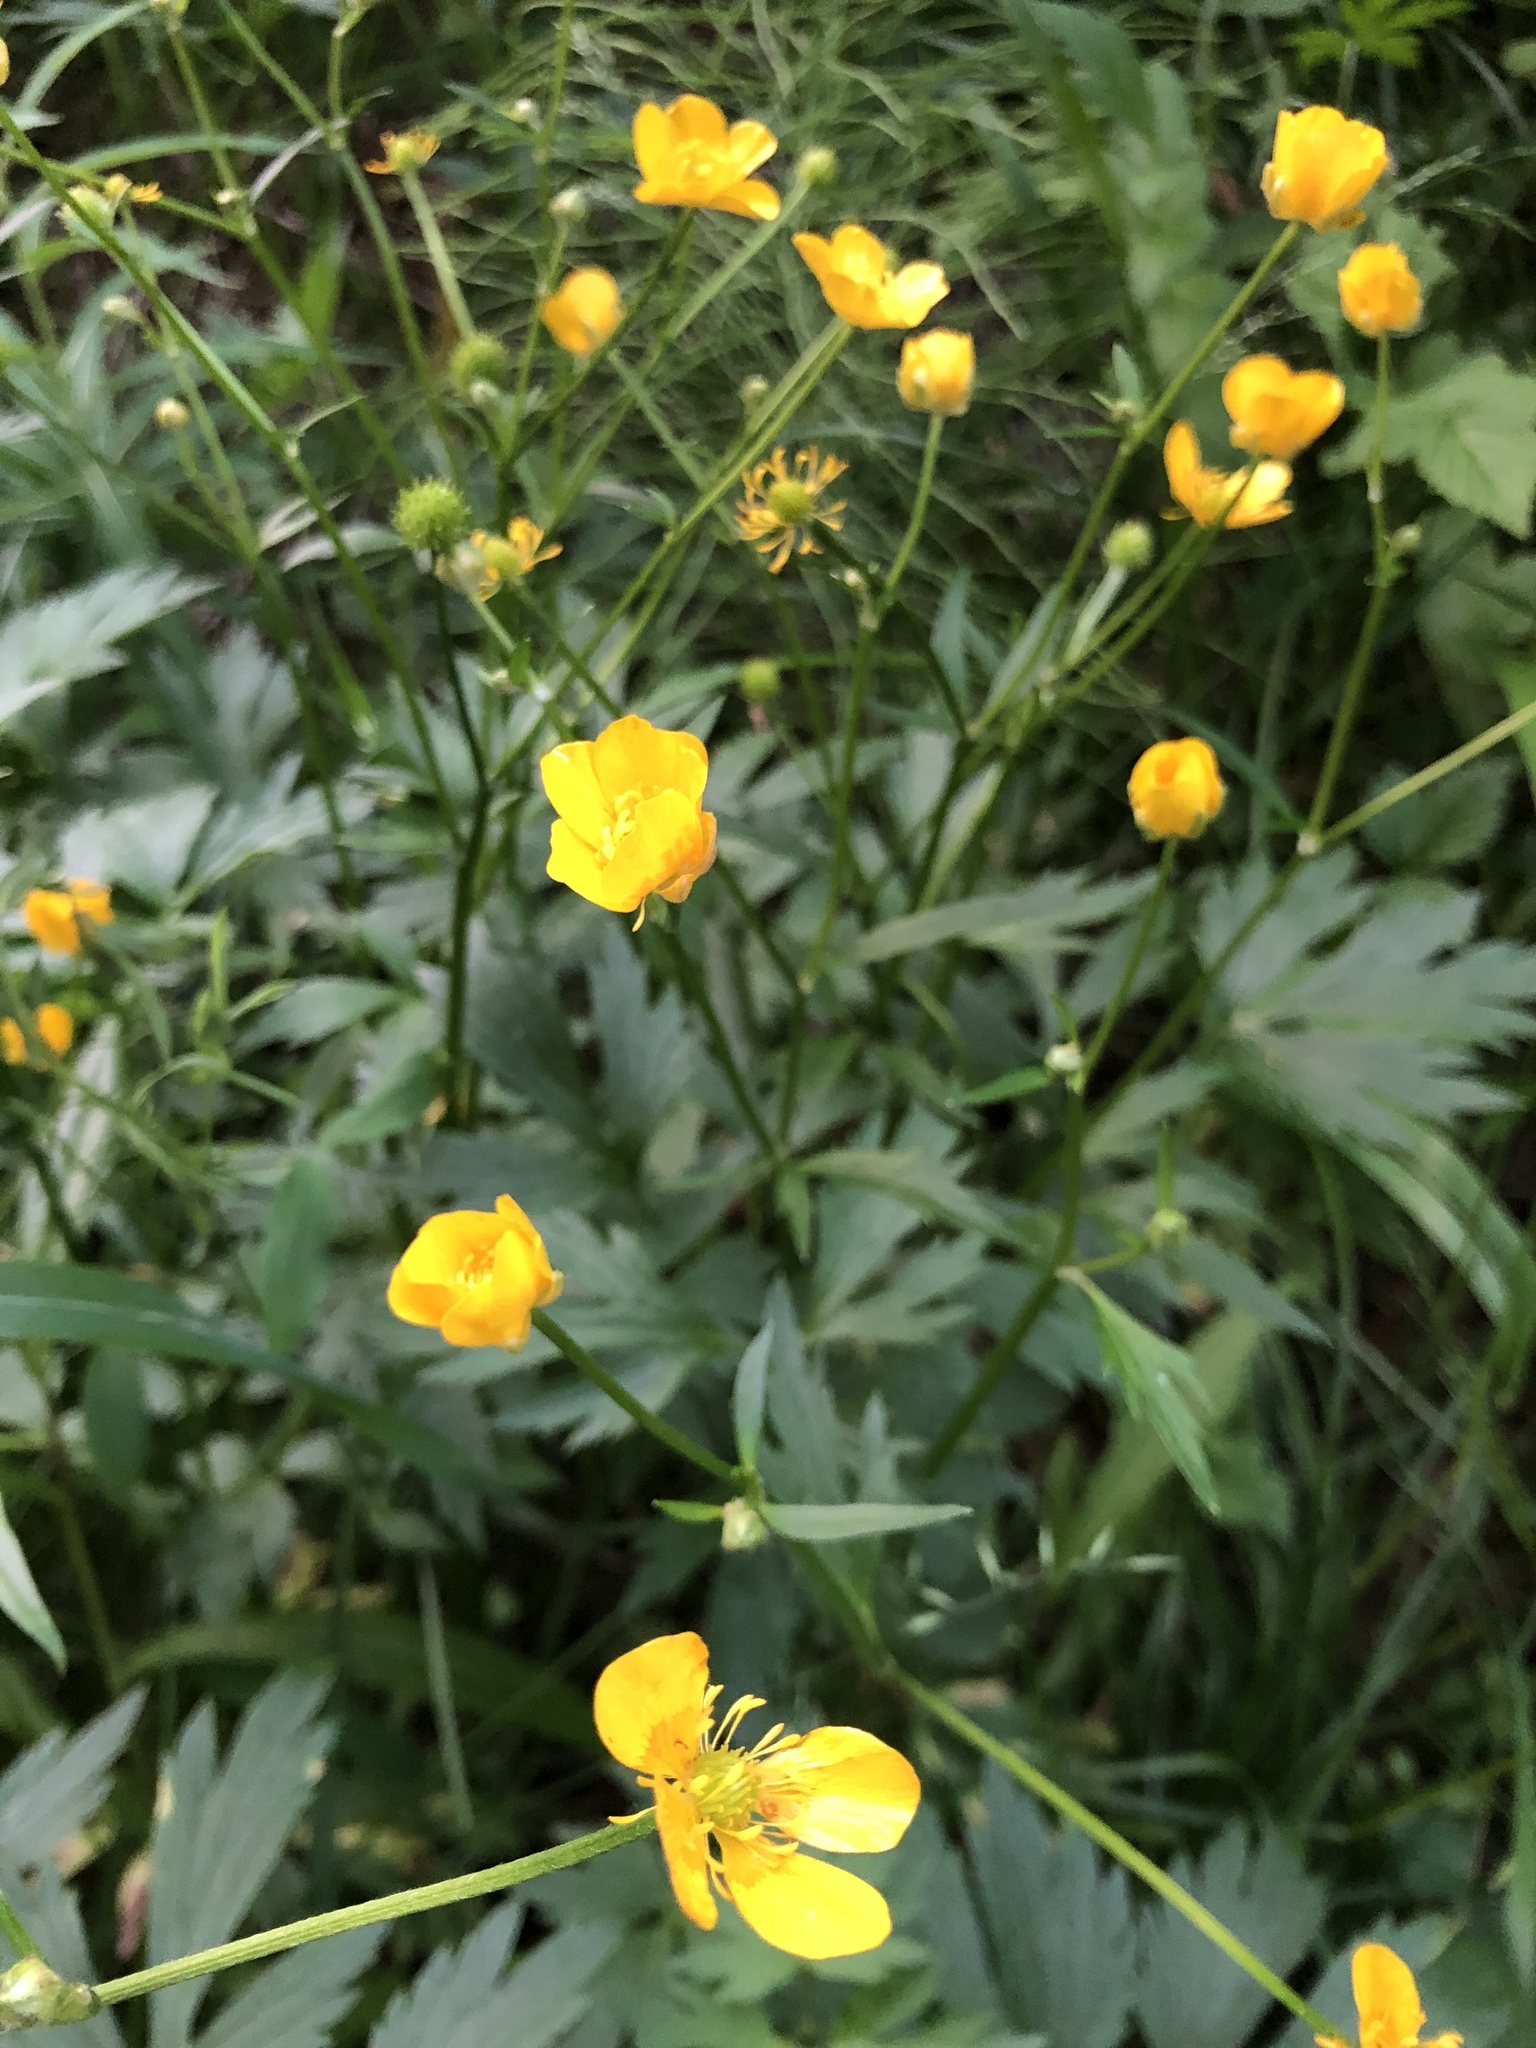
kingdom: Plantae
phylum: Tracheophyta
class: Magnoliopsida
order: Ranunculales
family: Ranunculaceae
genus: Ranunculus
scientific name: Ranunculus repens
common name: Creeping buttercup
